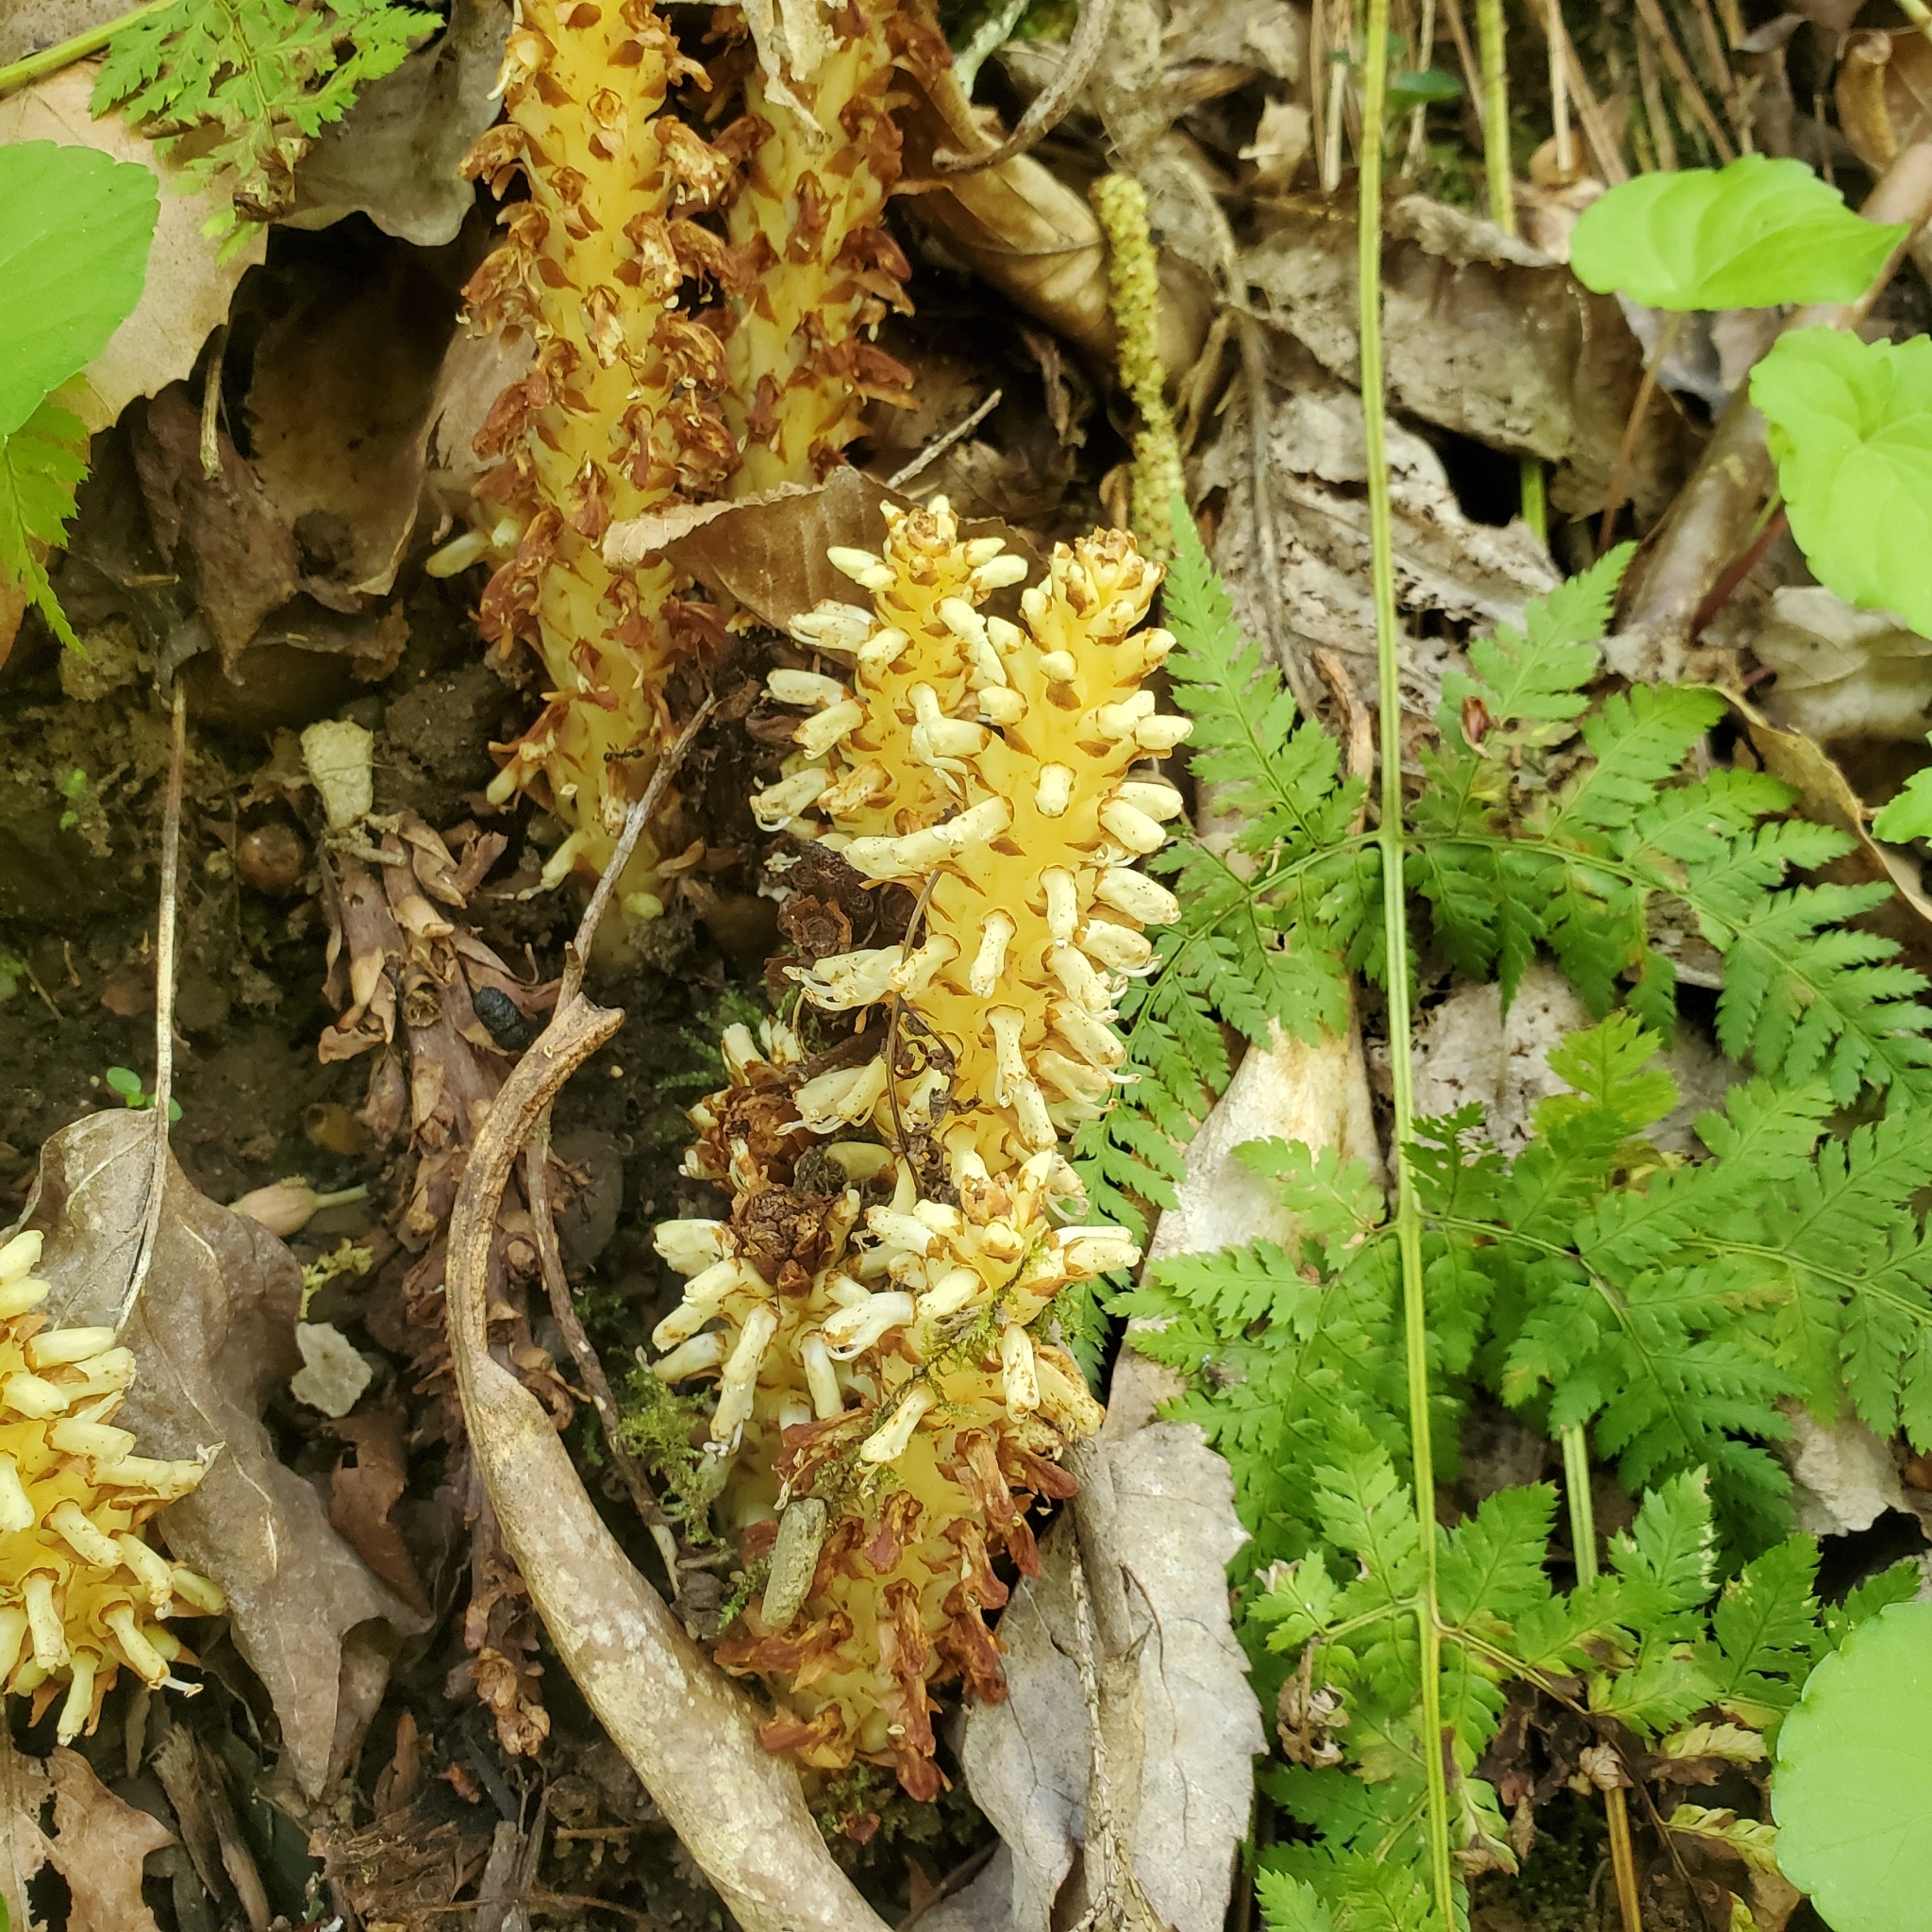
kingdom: Plantae
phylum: Tracheophyta
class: Magnoliopsida
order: Lamiales
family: Orobanchaceae
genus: Conopholis
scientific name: Conopholis americana
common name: American cancer-root
